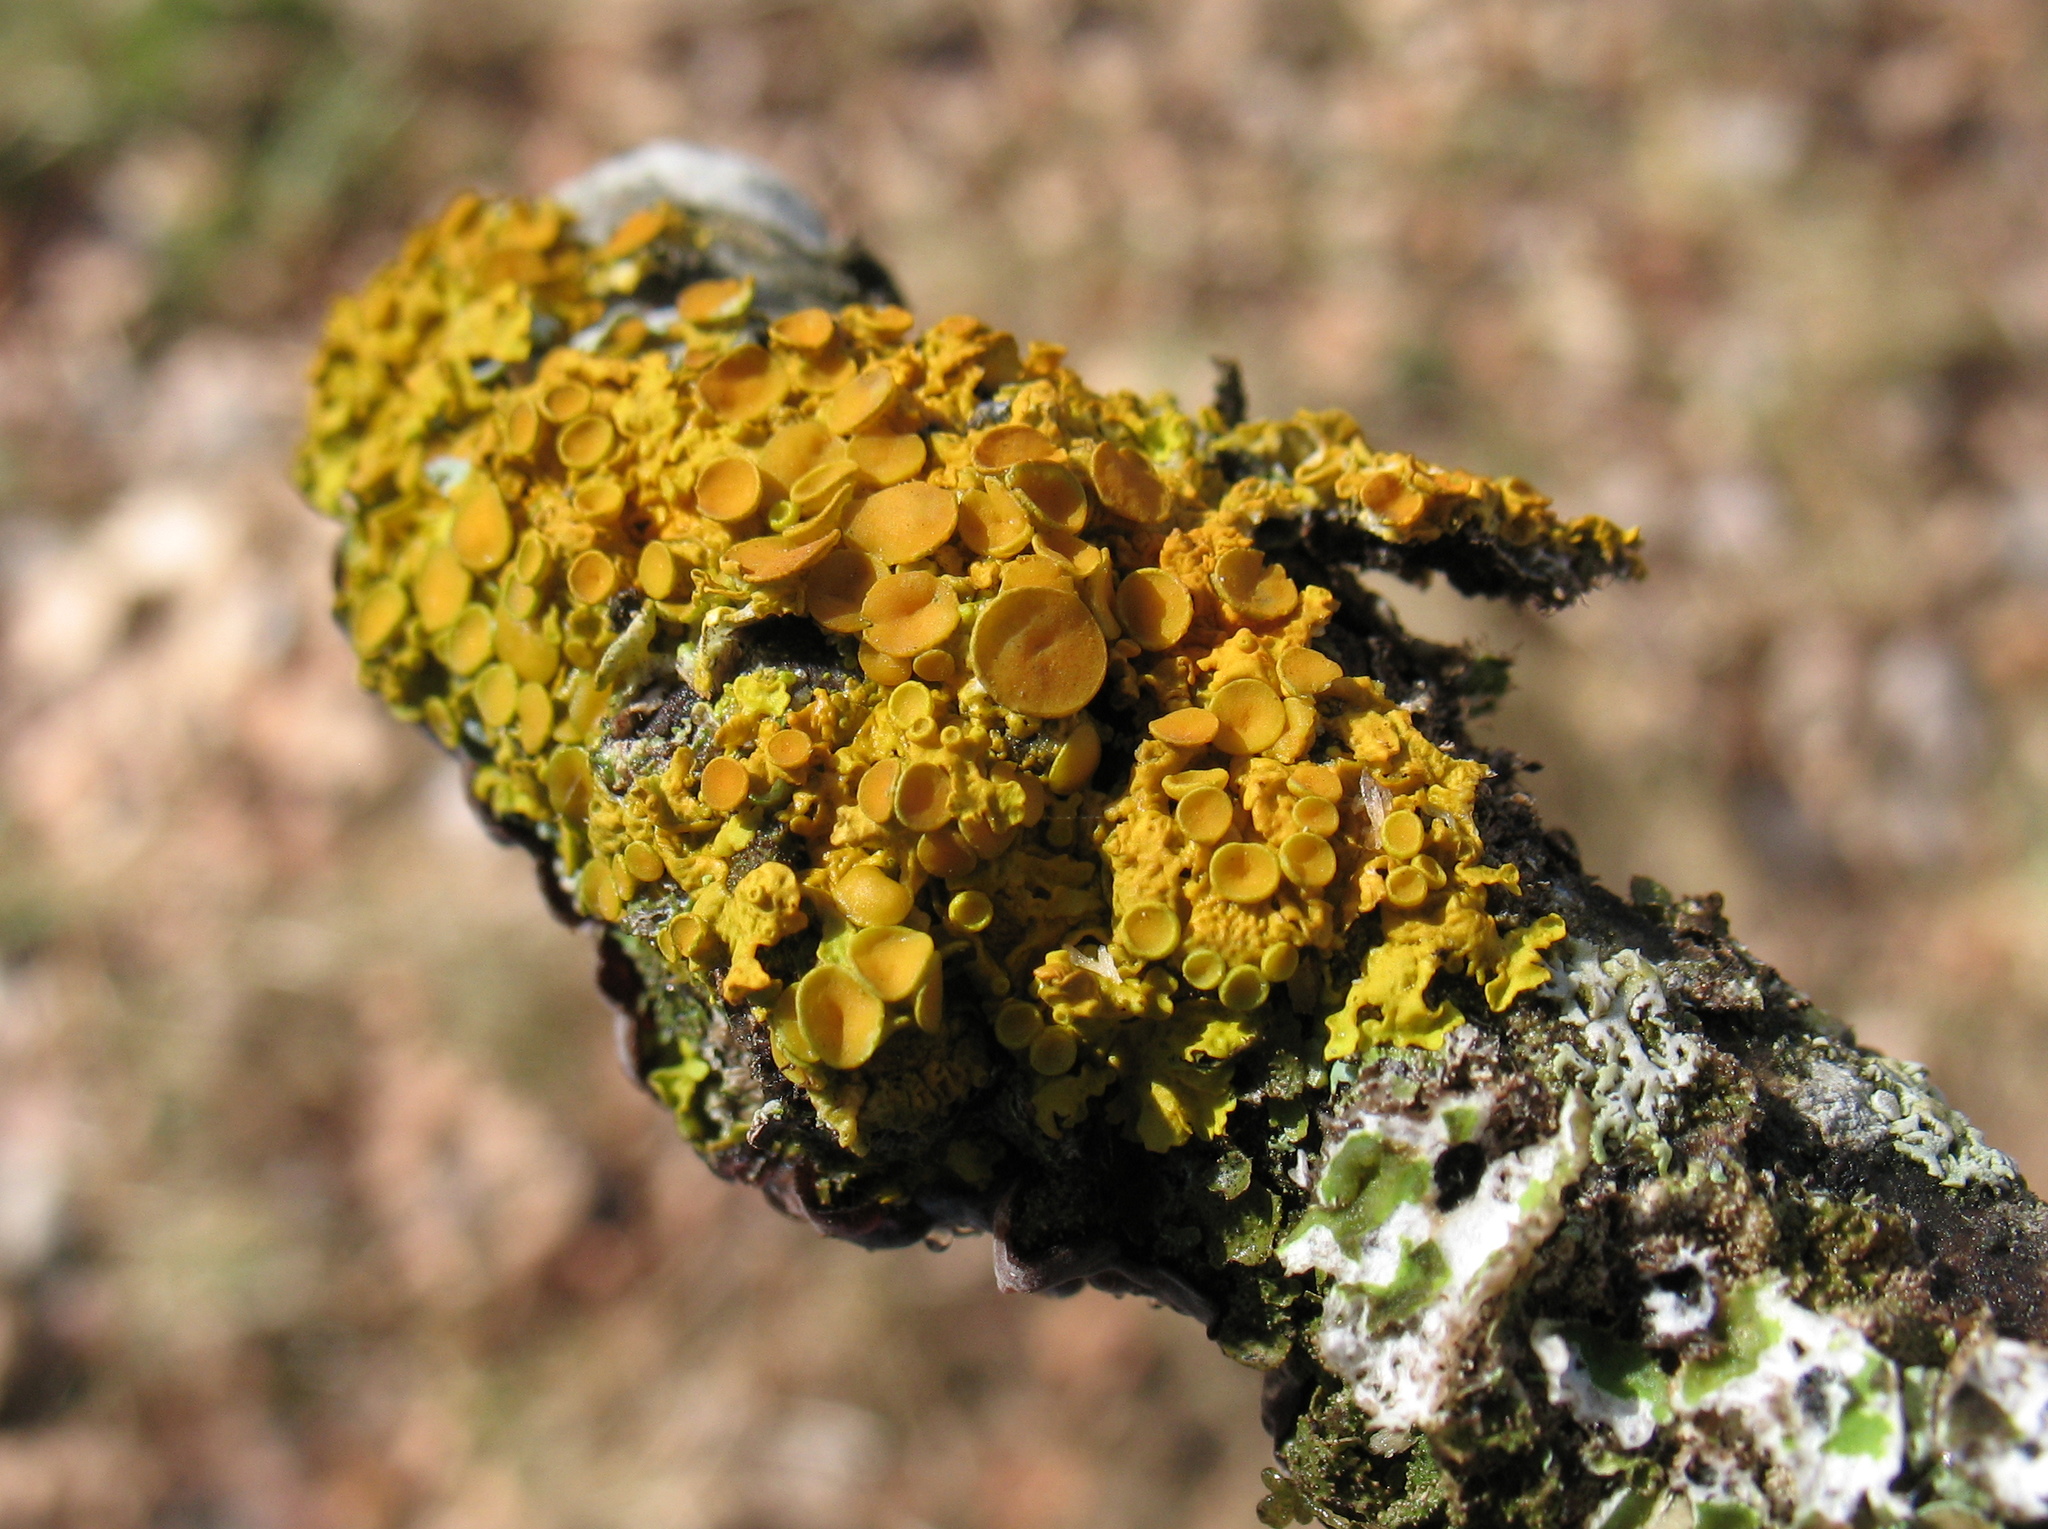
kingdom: Fungi
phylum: Ascomycota
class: Lecanoromycetes
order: Teloschistales
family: Teloschistaceae
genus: Xanthoria
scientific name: Xanthoria parietina
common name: Common orange lichen
